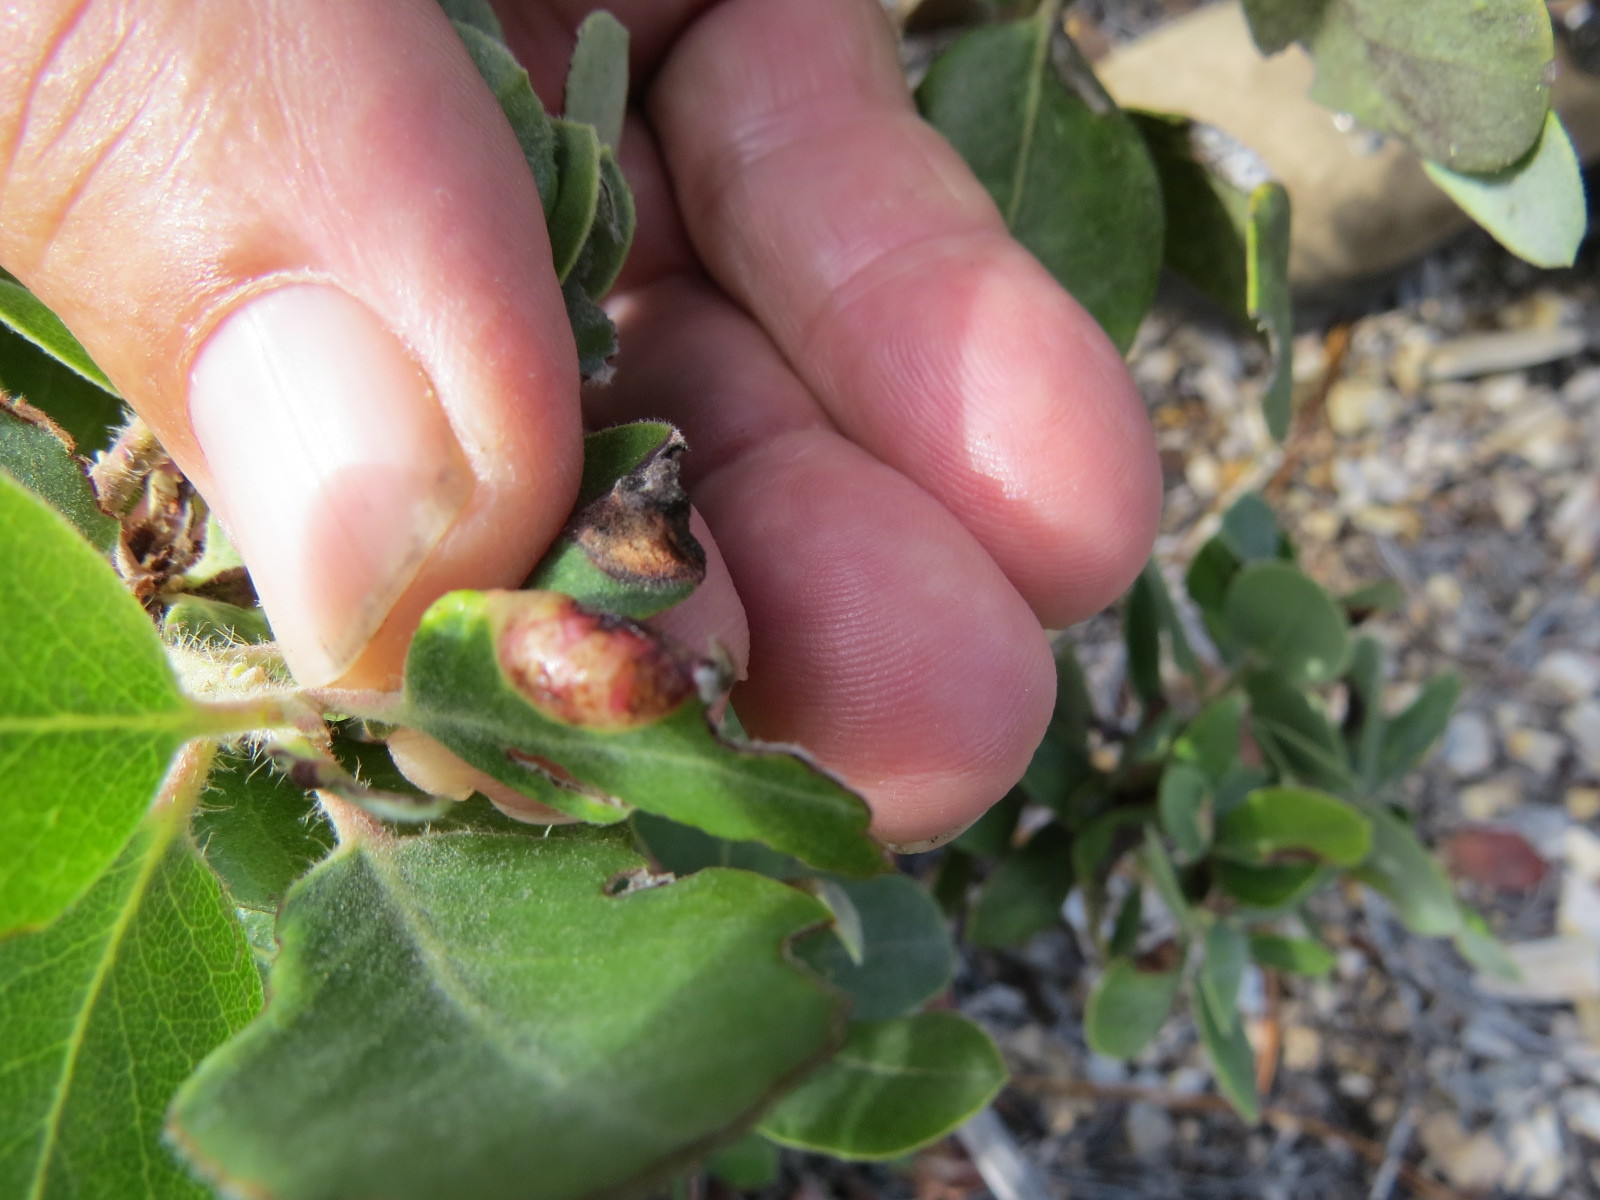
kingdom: Animalia
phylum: Arthropoda
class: Insecta
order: Hemiptera
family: Aphididae
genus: Tamalia
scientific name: Tamalia coweni
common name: Manzanita leafgall aphid
